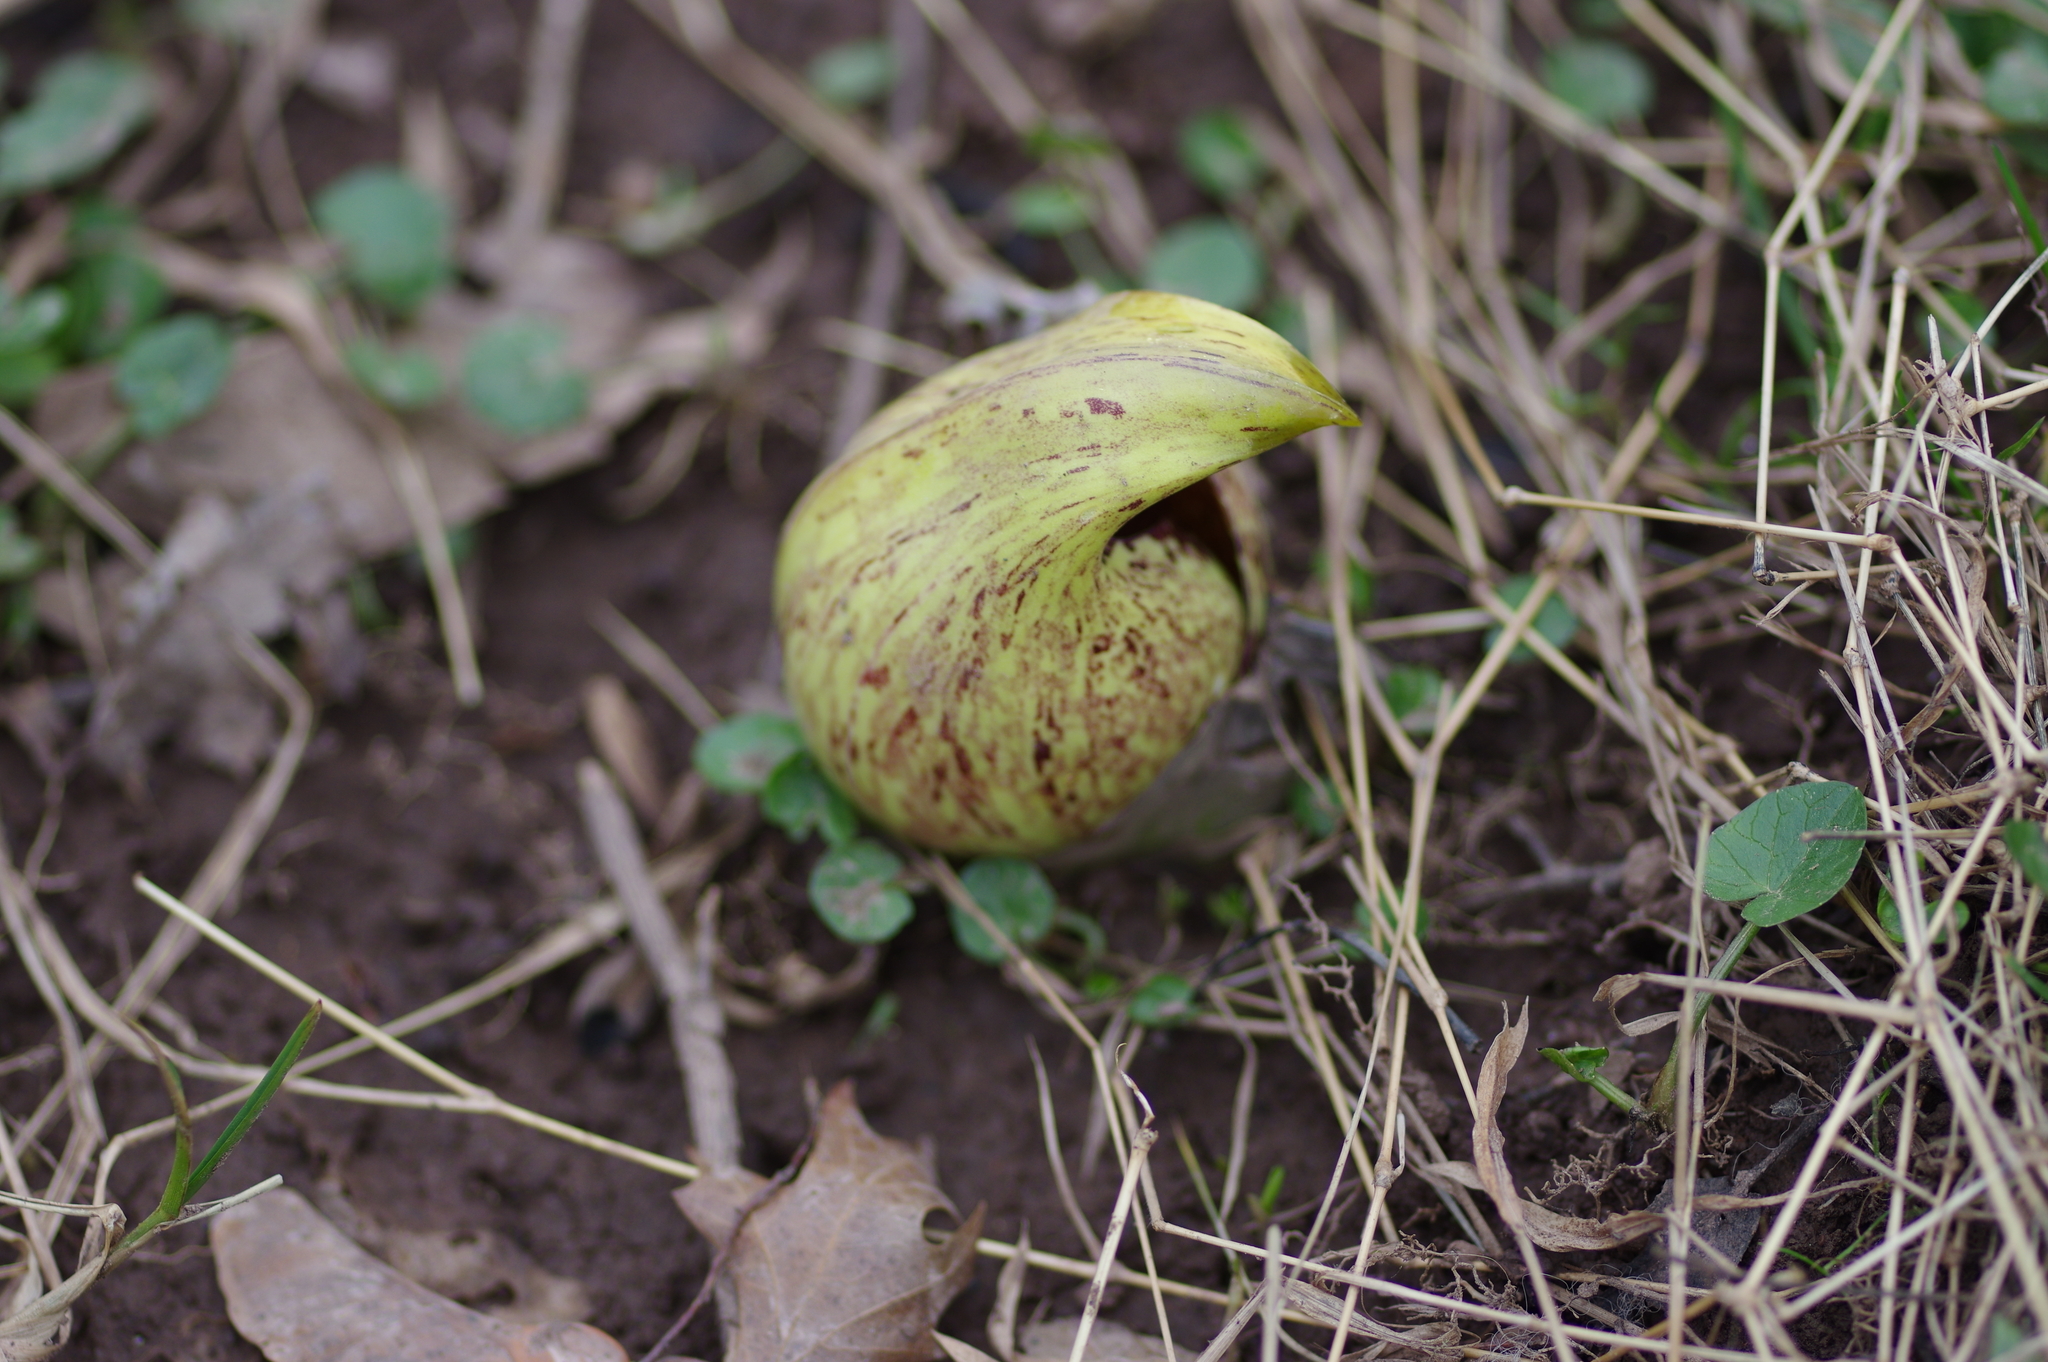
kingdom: Plantae
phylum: Tracheophyta
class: Liliopsida
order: Alismatales
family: Araceae
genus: Symplocarpus
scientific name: Symplocarpus foetidus
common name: Eastern skunk cabbage
